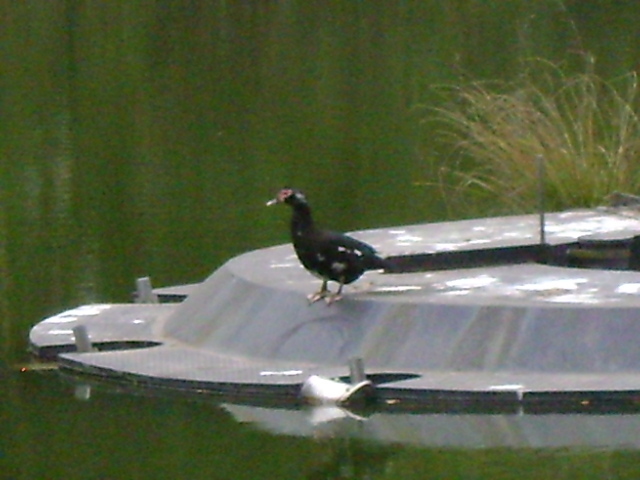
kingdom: Animalia
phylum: Chordata
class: Aves
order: Anseriformes
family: Anatidae
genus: Cairina
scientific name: Cairina moschata
